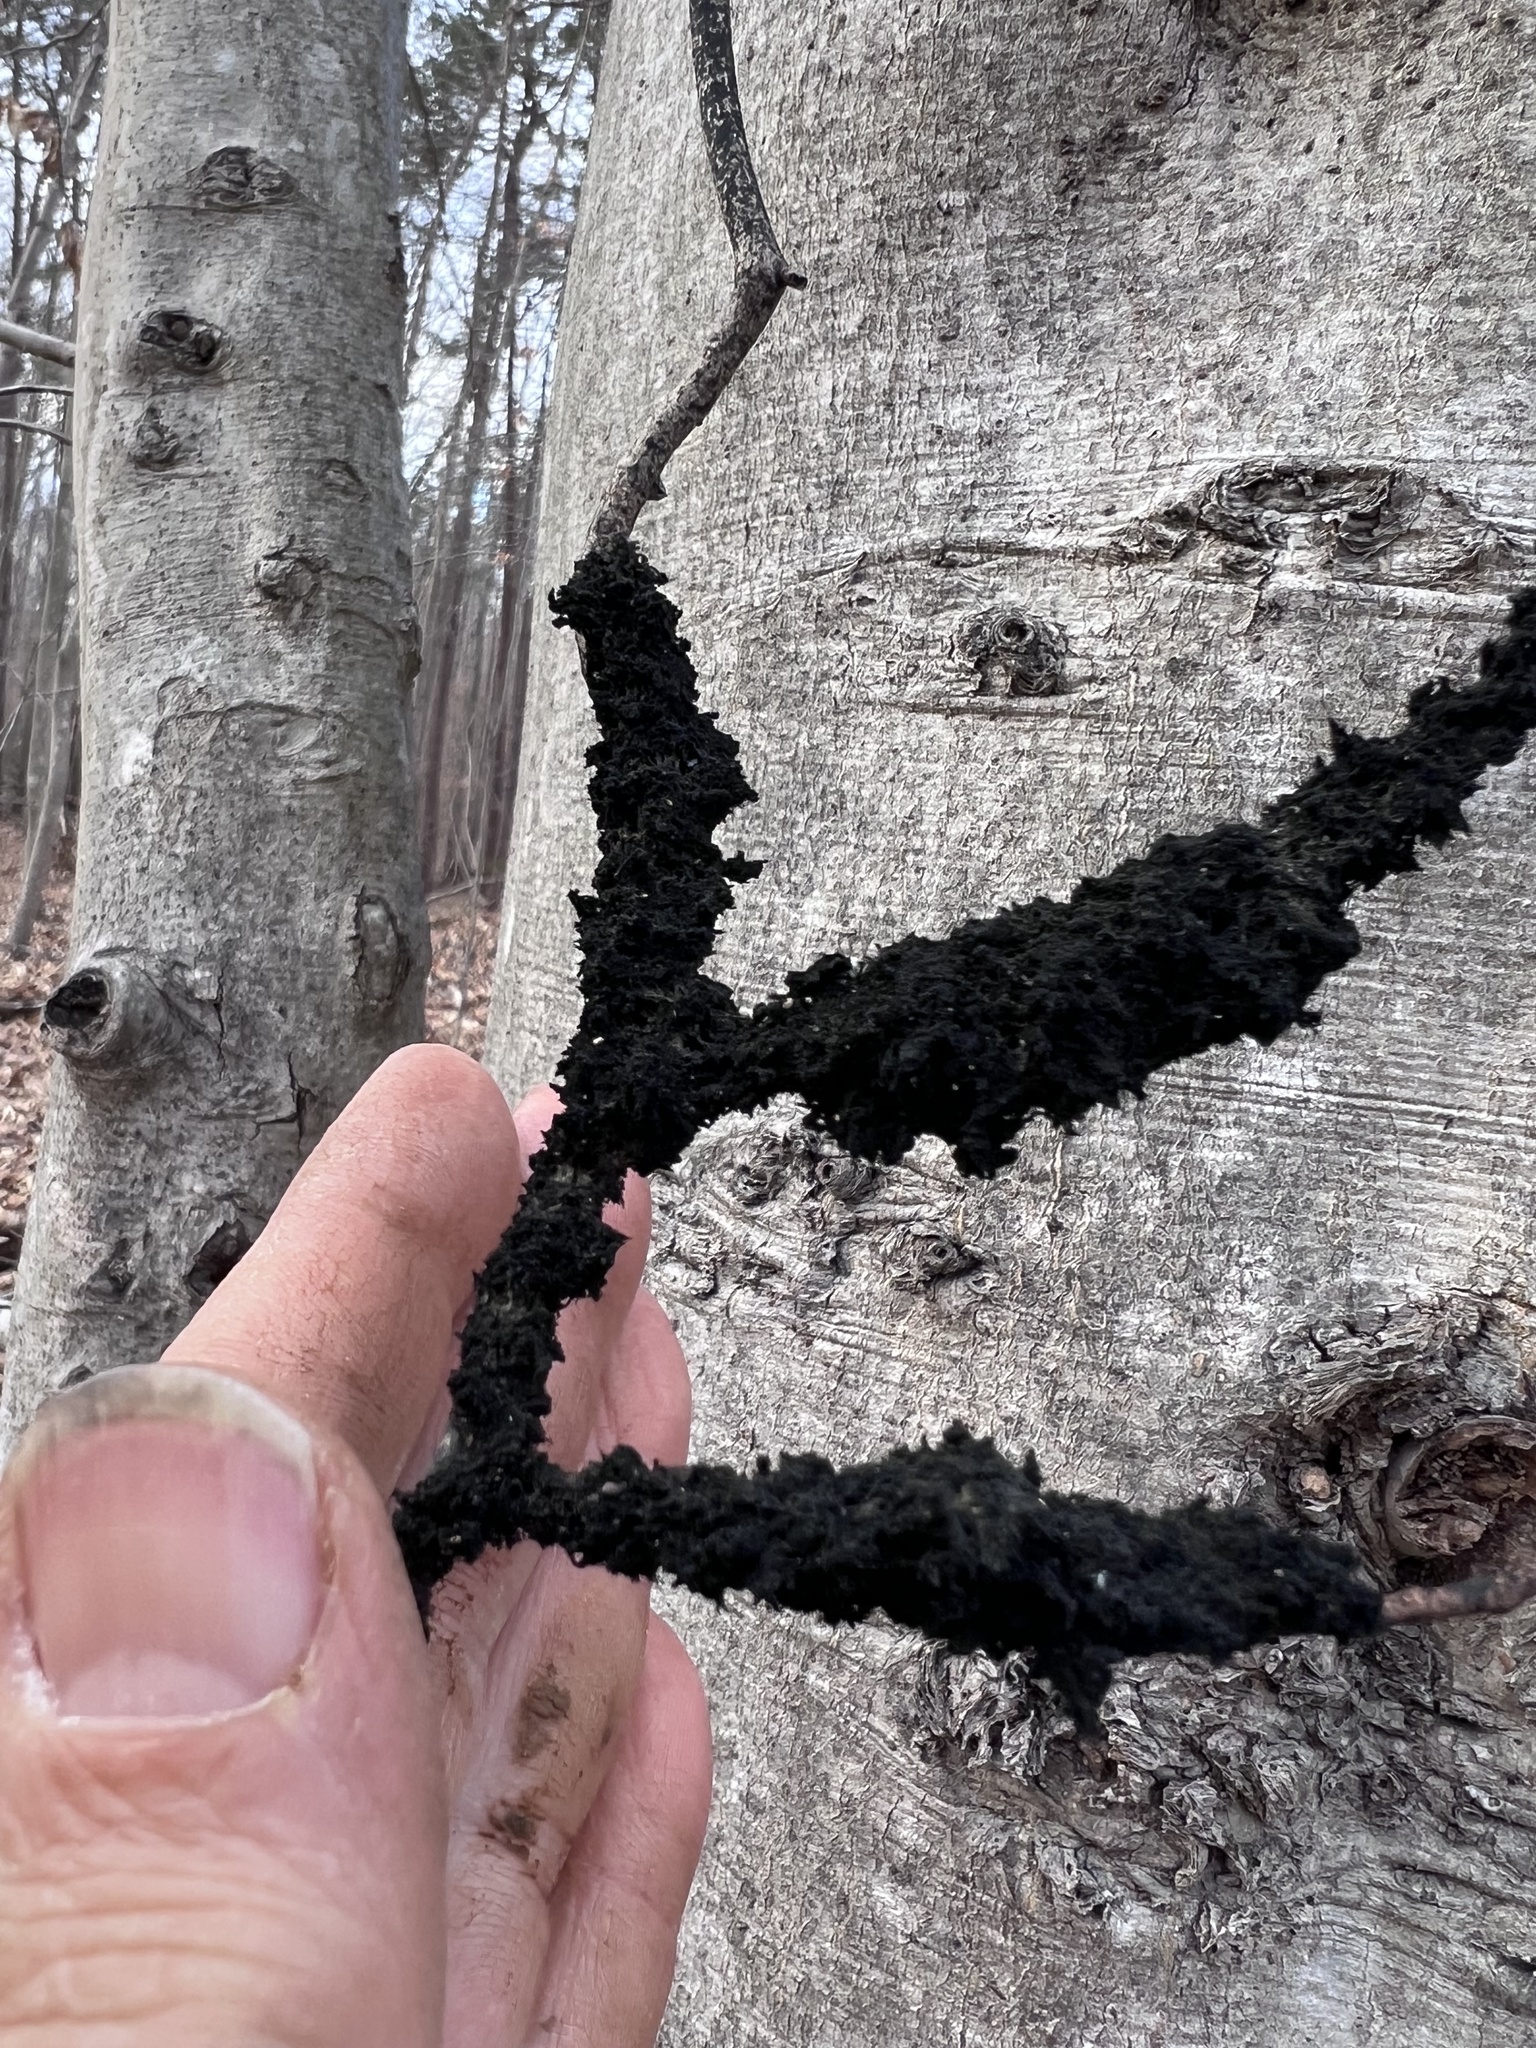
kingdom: Fungi
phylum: Ascomycota
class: Dothideomycetes
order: Capnodiales
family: Capnodiaceae
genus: Scorias
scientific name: Scorias spongiosa
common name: Black sooty mold
